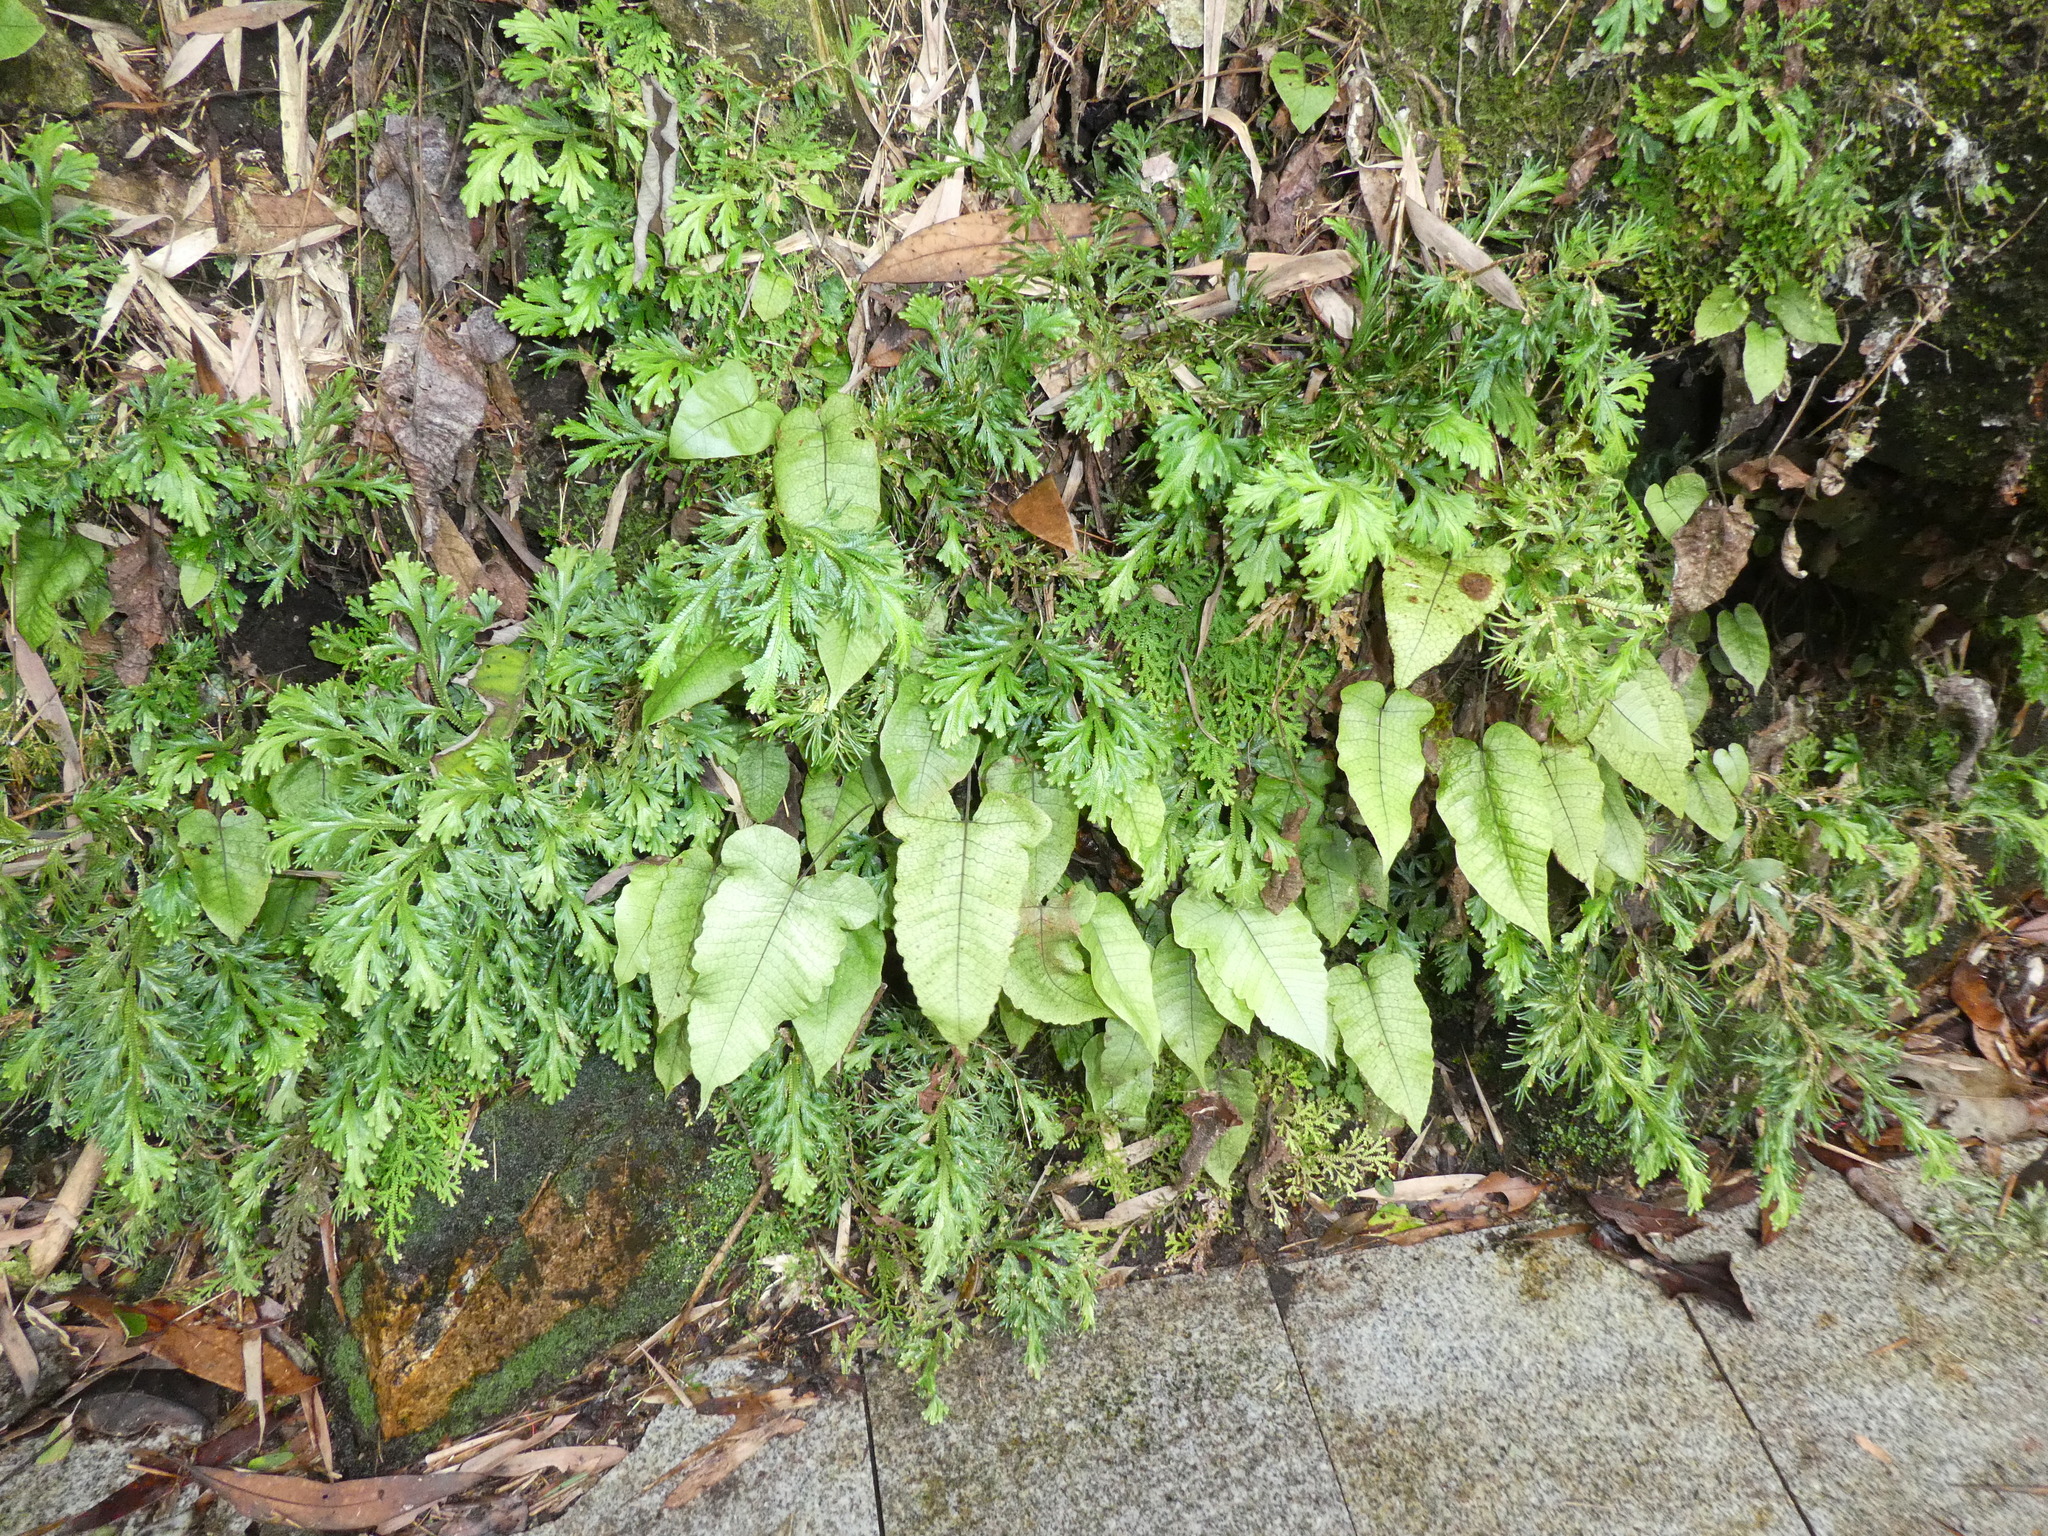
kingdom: Plantae
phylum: Tracheophyta
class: Polypodiopsida
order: Polypodiales
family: Thelypteridaceae
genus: Stegnogramma
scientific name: Stegnogramma sagittifolia
